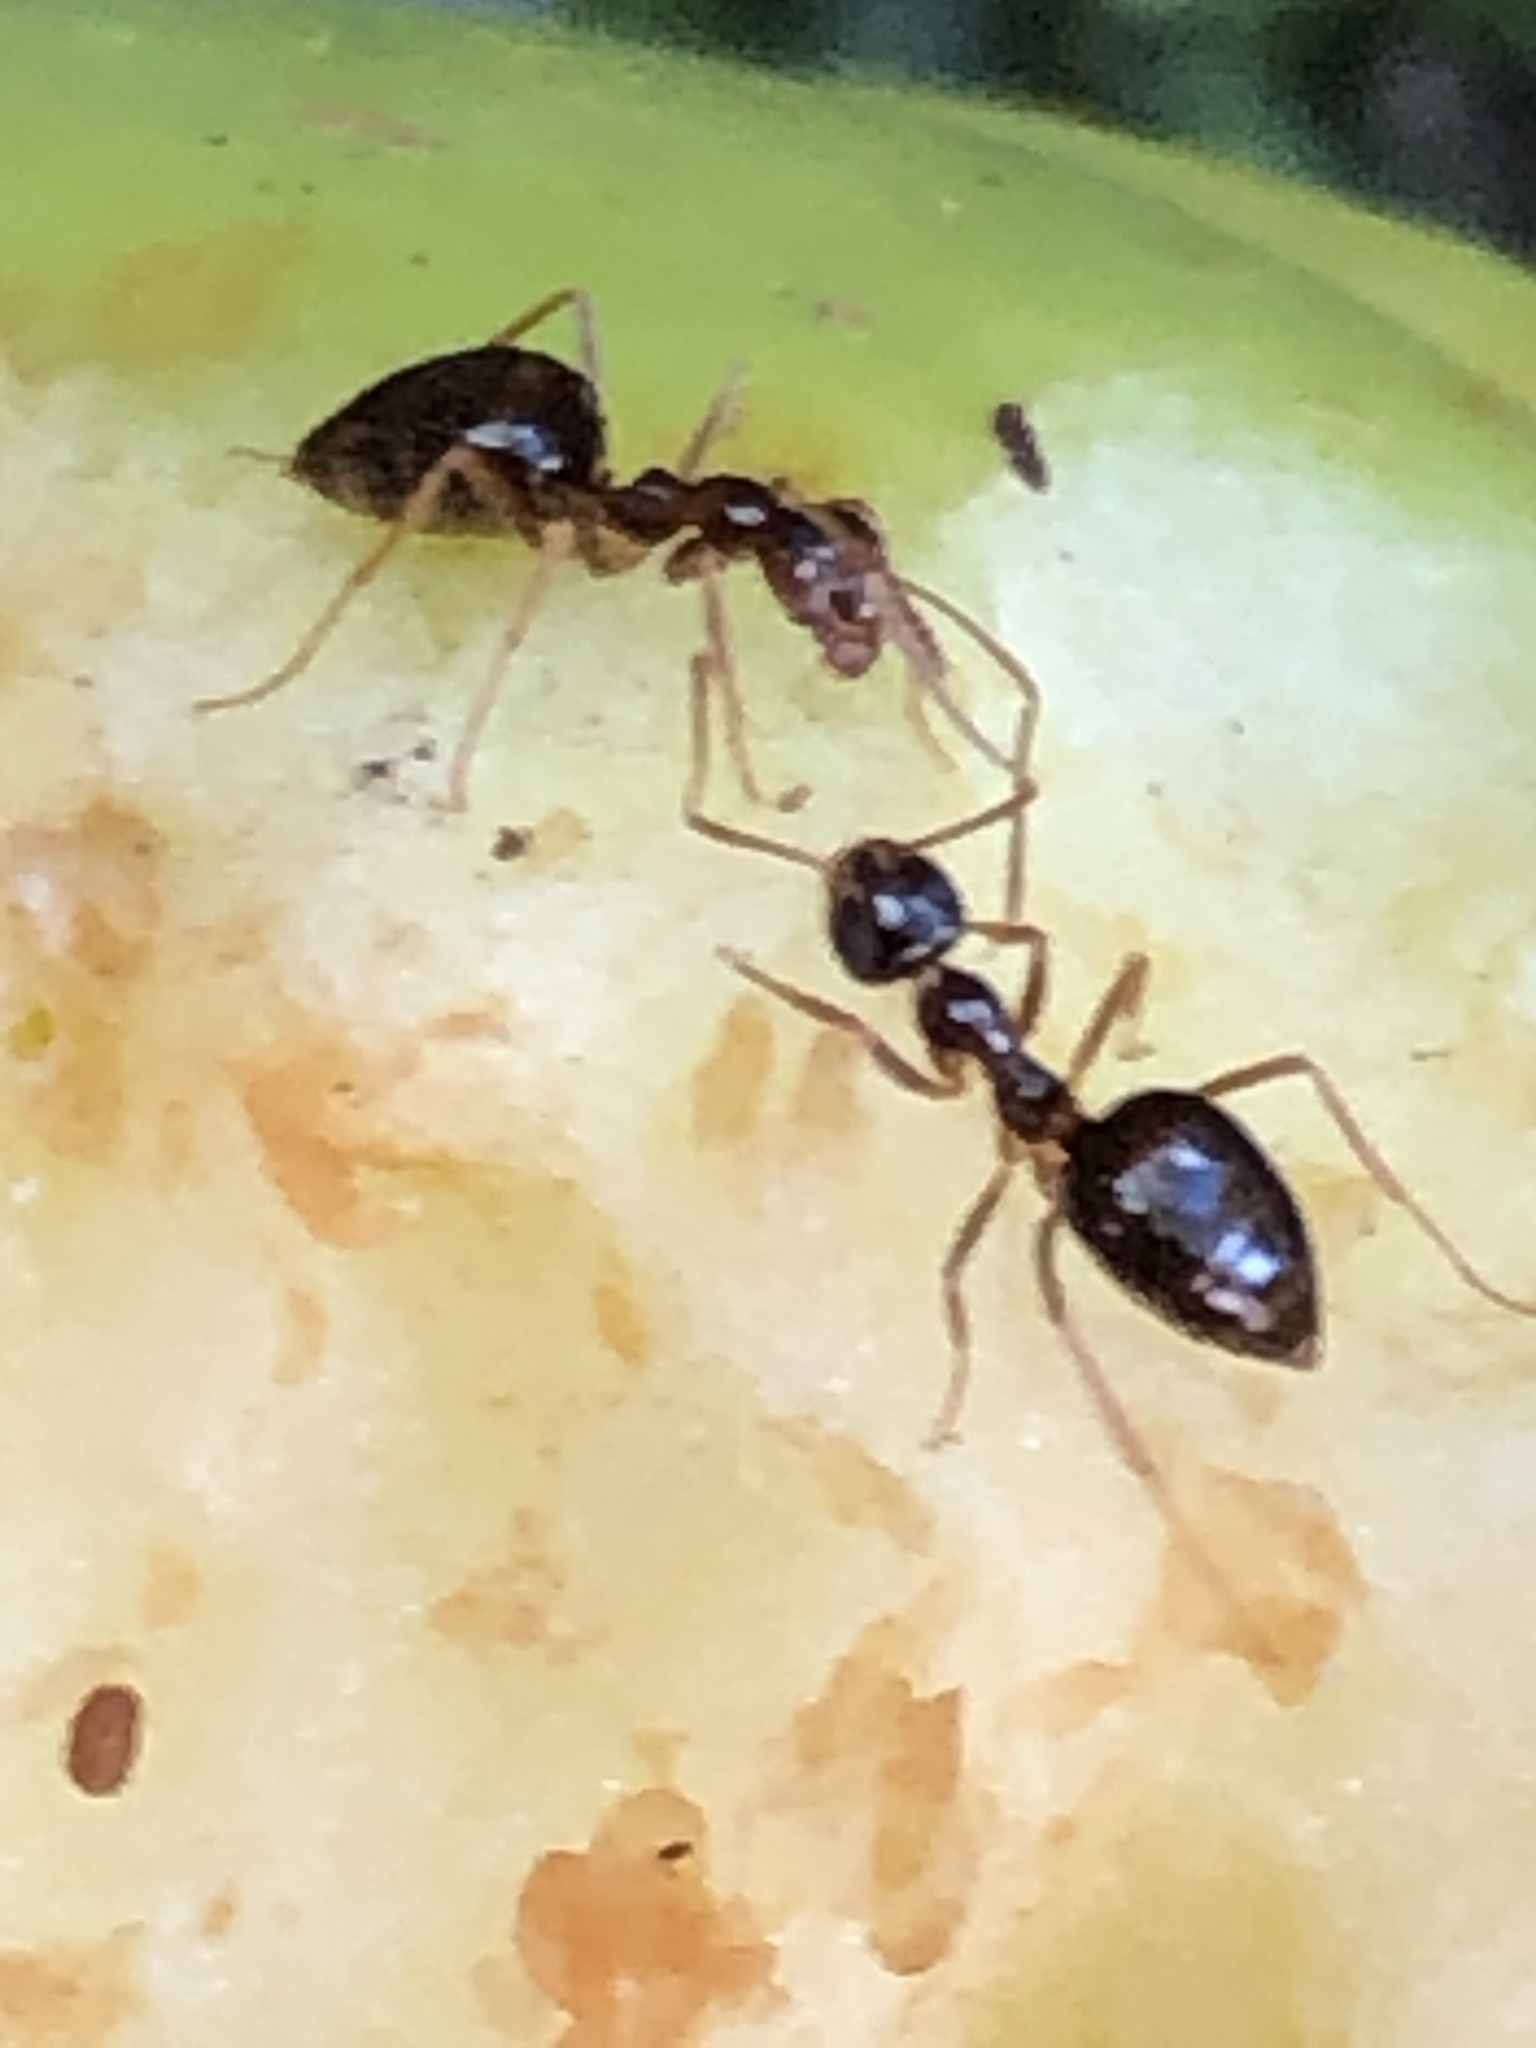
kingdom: Animalia
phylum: Arthropoda
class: Insecta
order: Hymenoptera
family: Formicidae
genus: Prenolepis
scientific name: Prenolepis imparis
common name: Small honey ant
